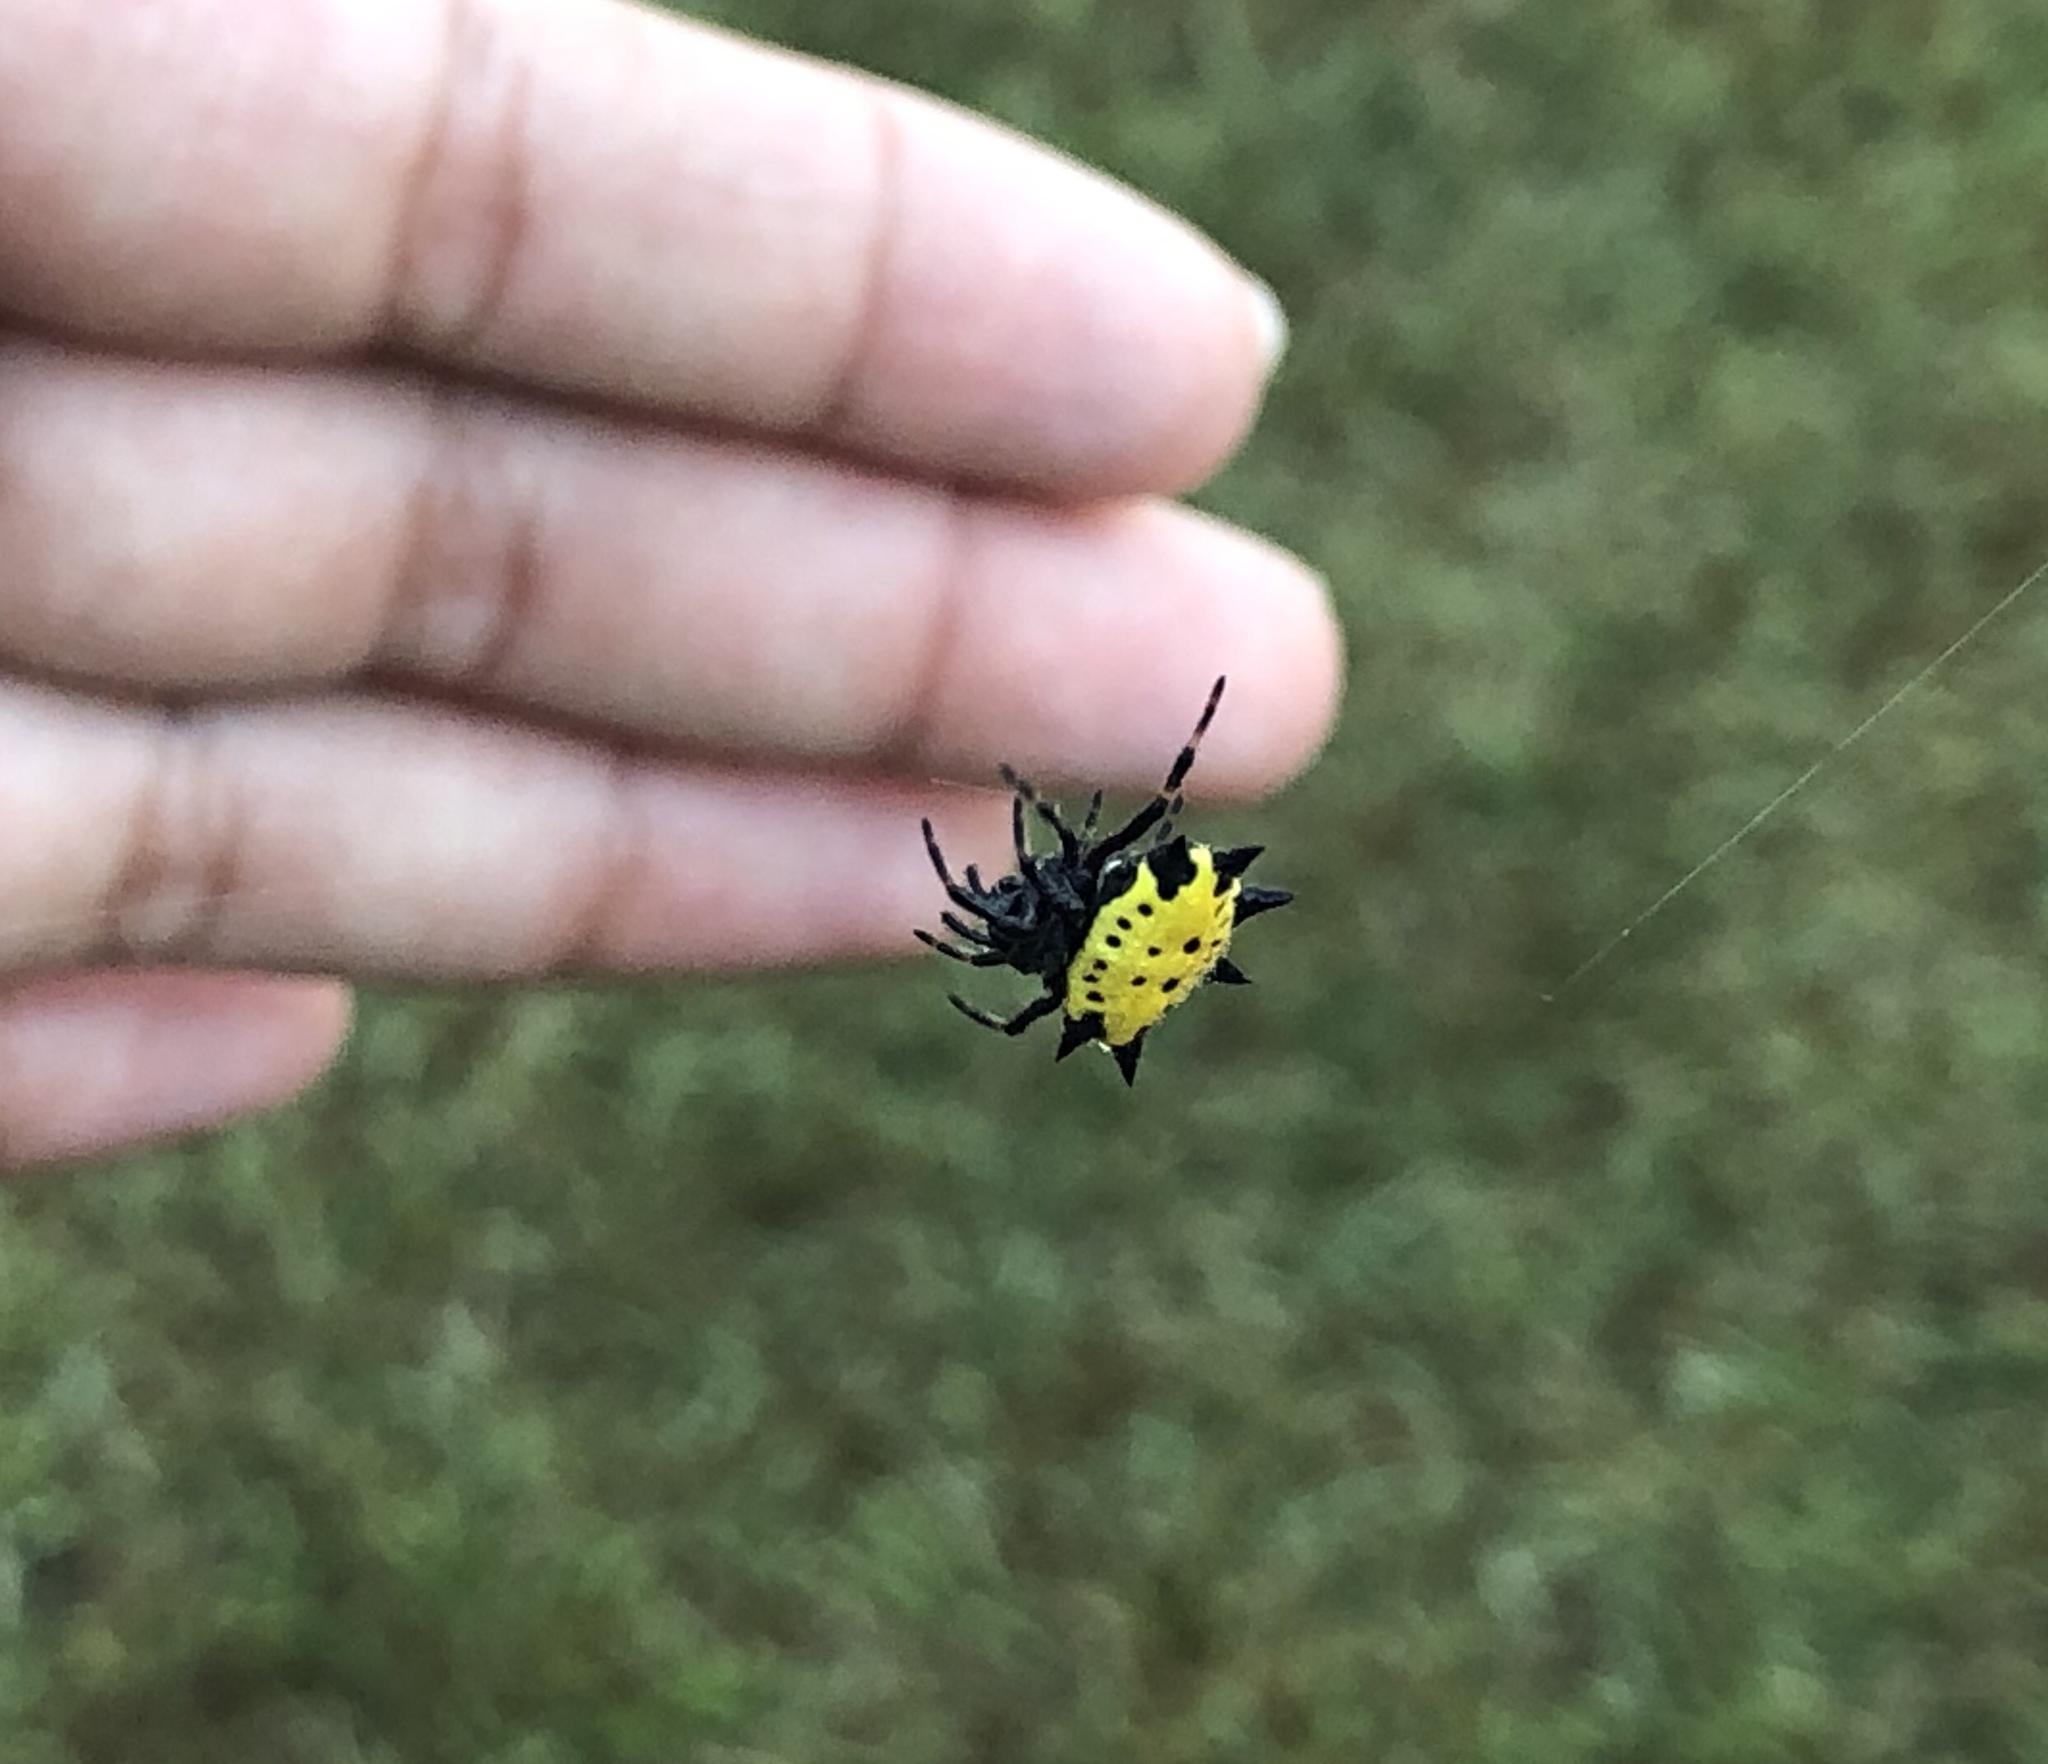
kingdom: Animalia
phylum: Arthropoda
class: Arachnida
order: Araneae
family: Araneidae
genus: Gasteracantha
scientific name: Gasteracantha cancriformis
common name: Orb weavers
